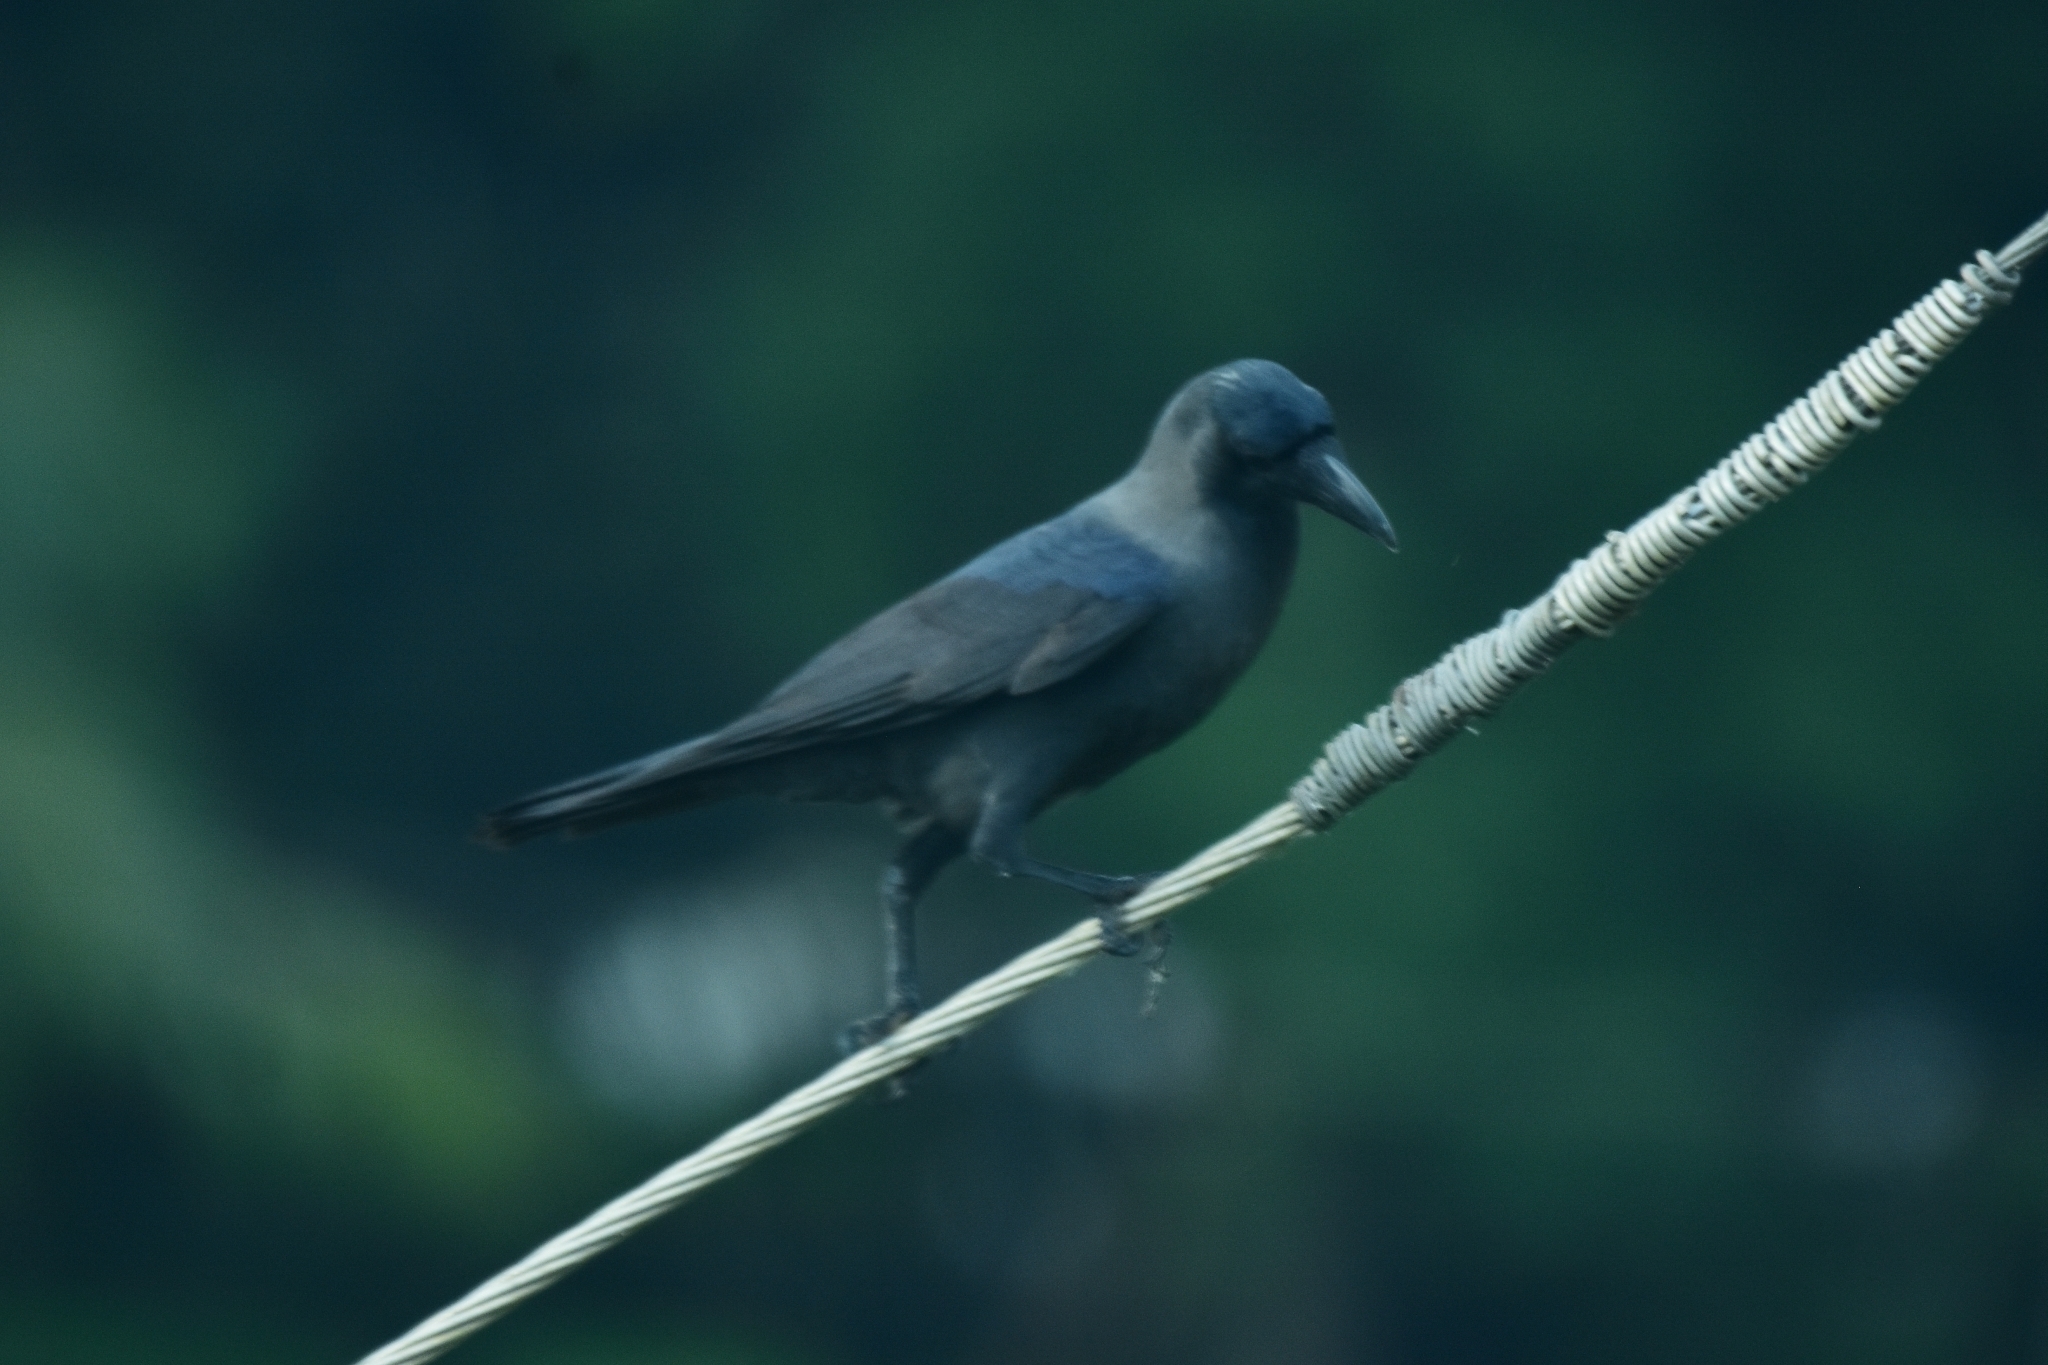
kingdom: Animalia
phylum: Chordata
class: Aves
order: Passeriformes
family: Corvidae
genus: Corvus
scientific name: Corvus splendens
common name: House crow
